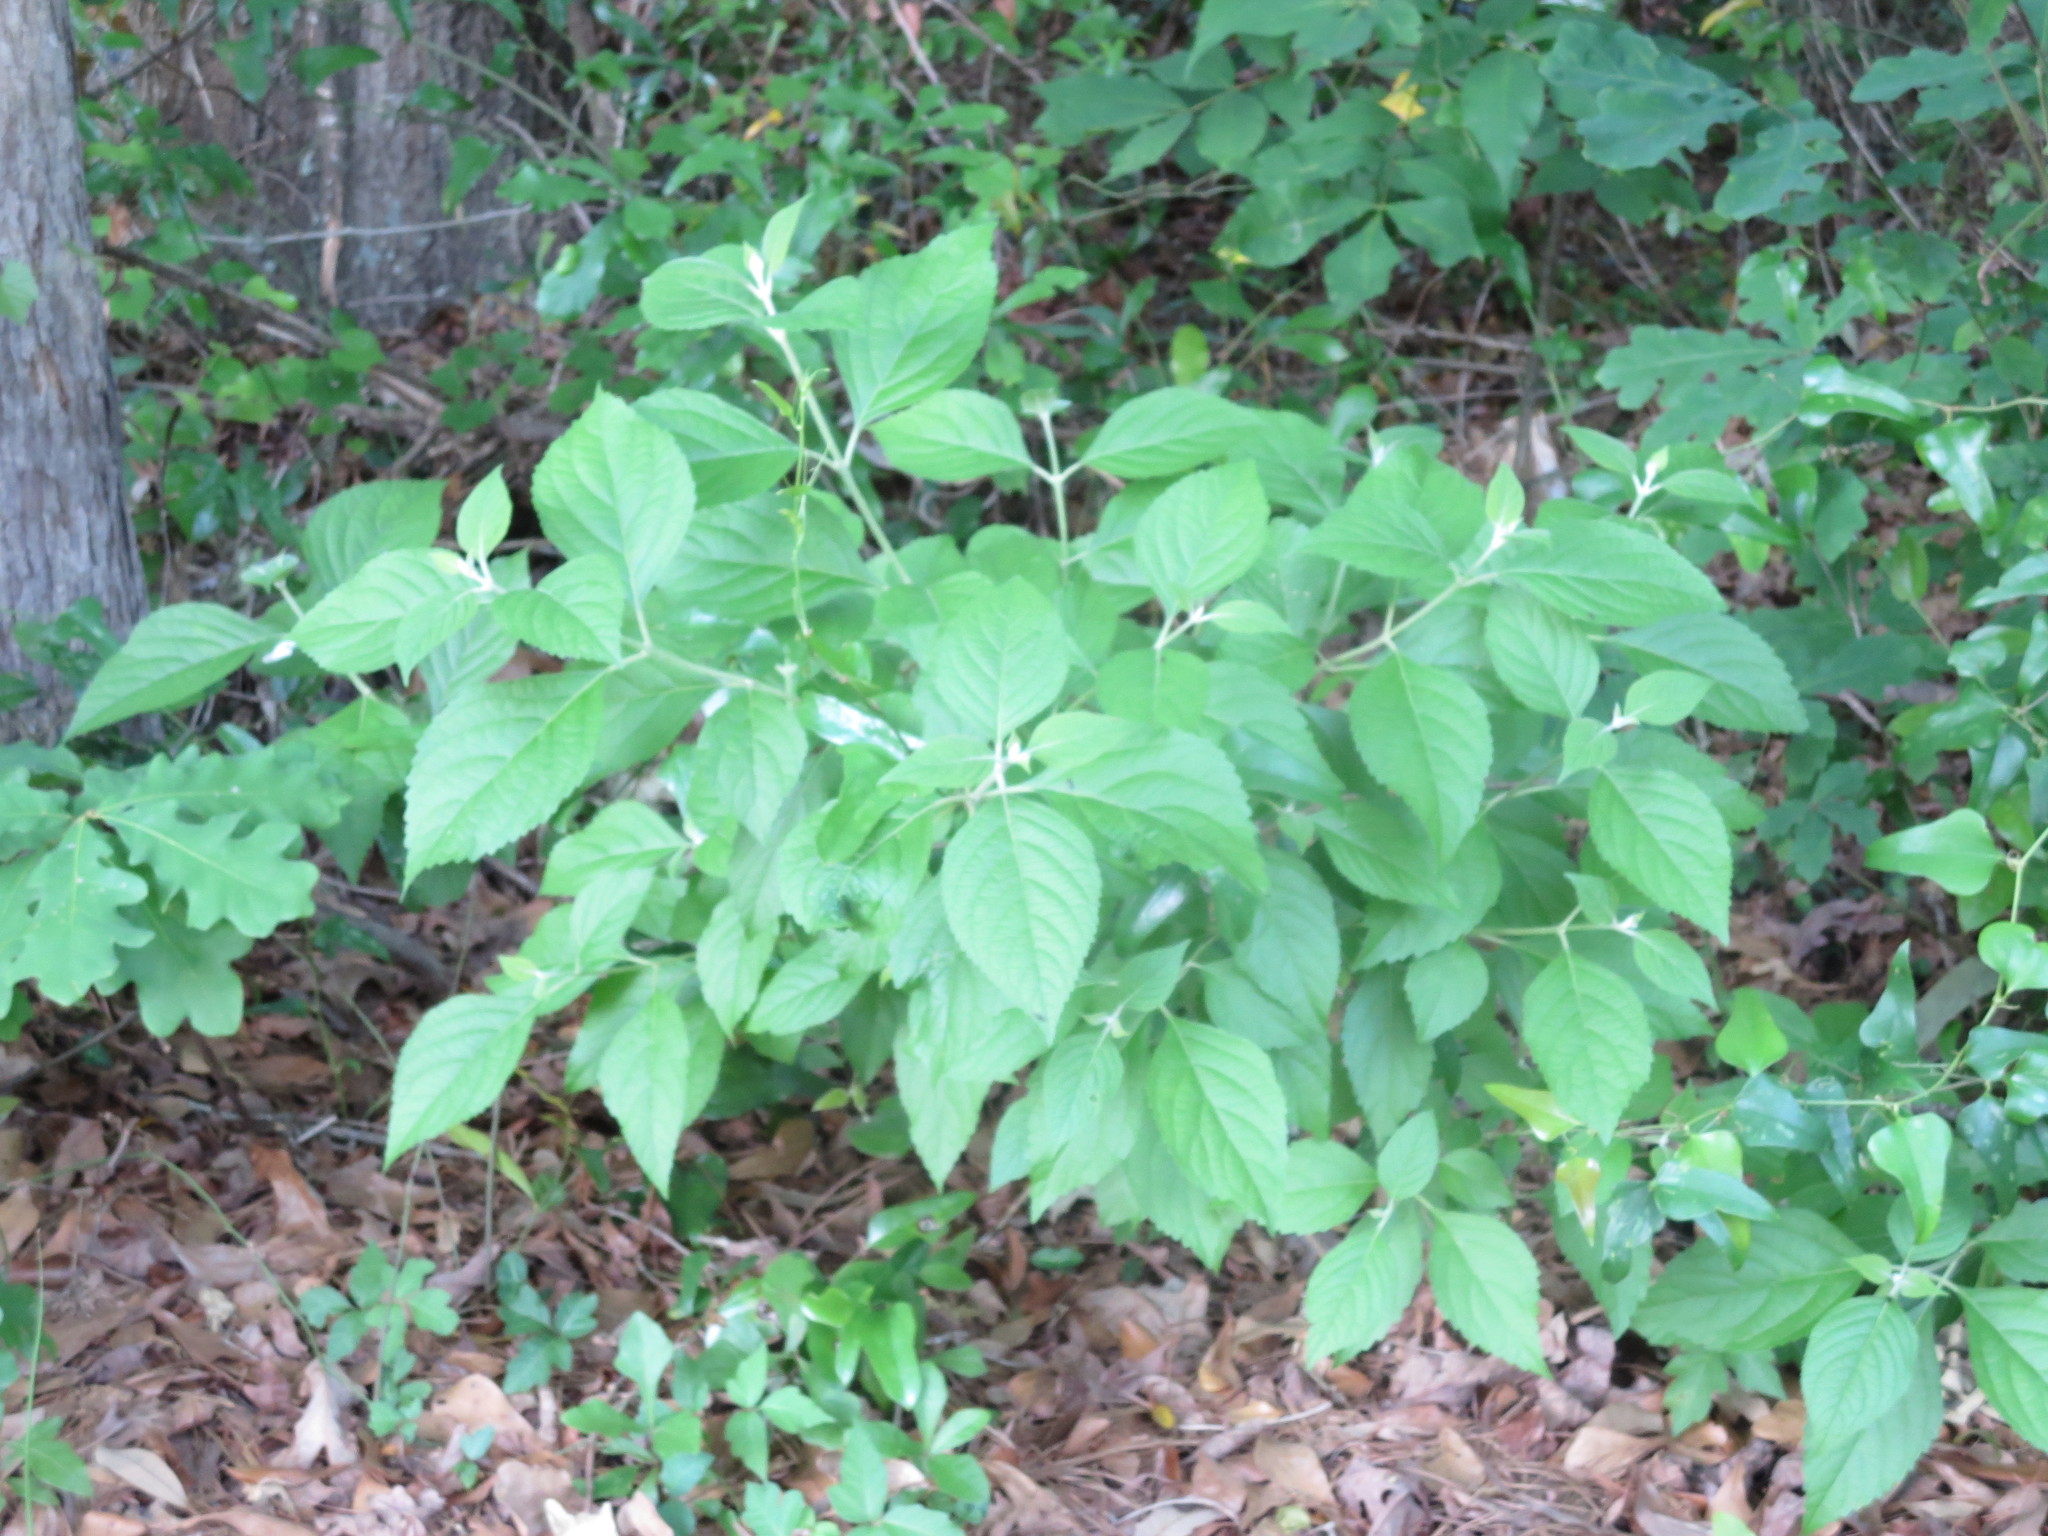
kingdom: Plantae
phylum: Tracheophyta
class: Magnoliopsida
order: Lamiales
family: Lamiaceae
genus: Callicarpa
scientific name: Callicarpa americana
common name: American beautyberry
